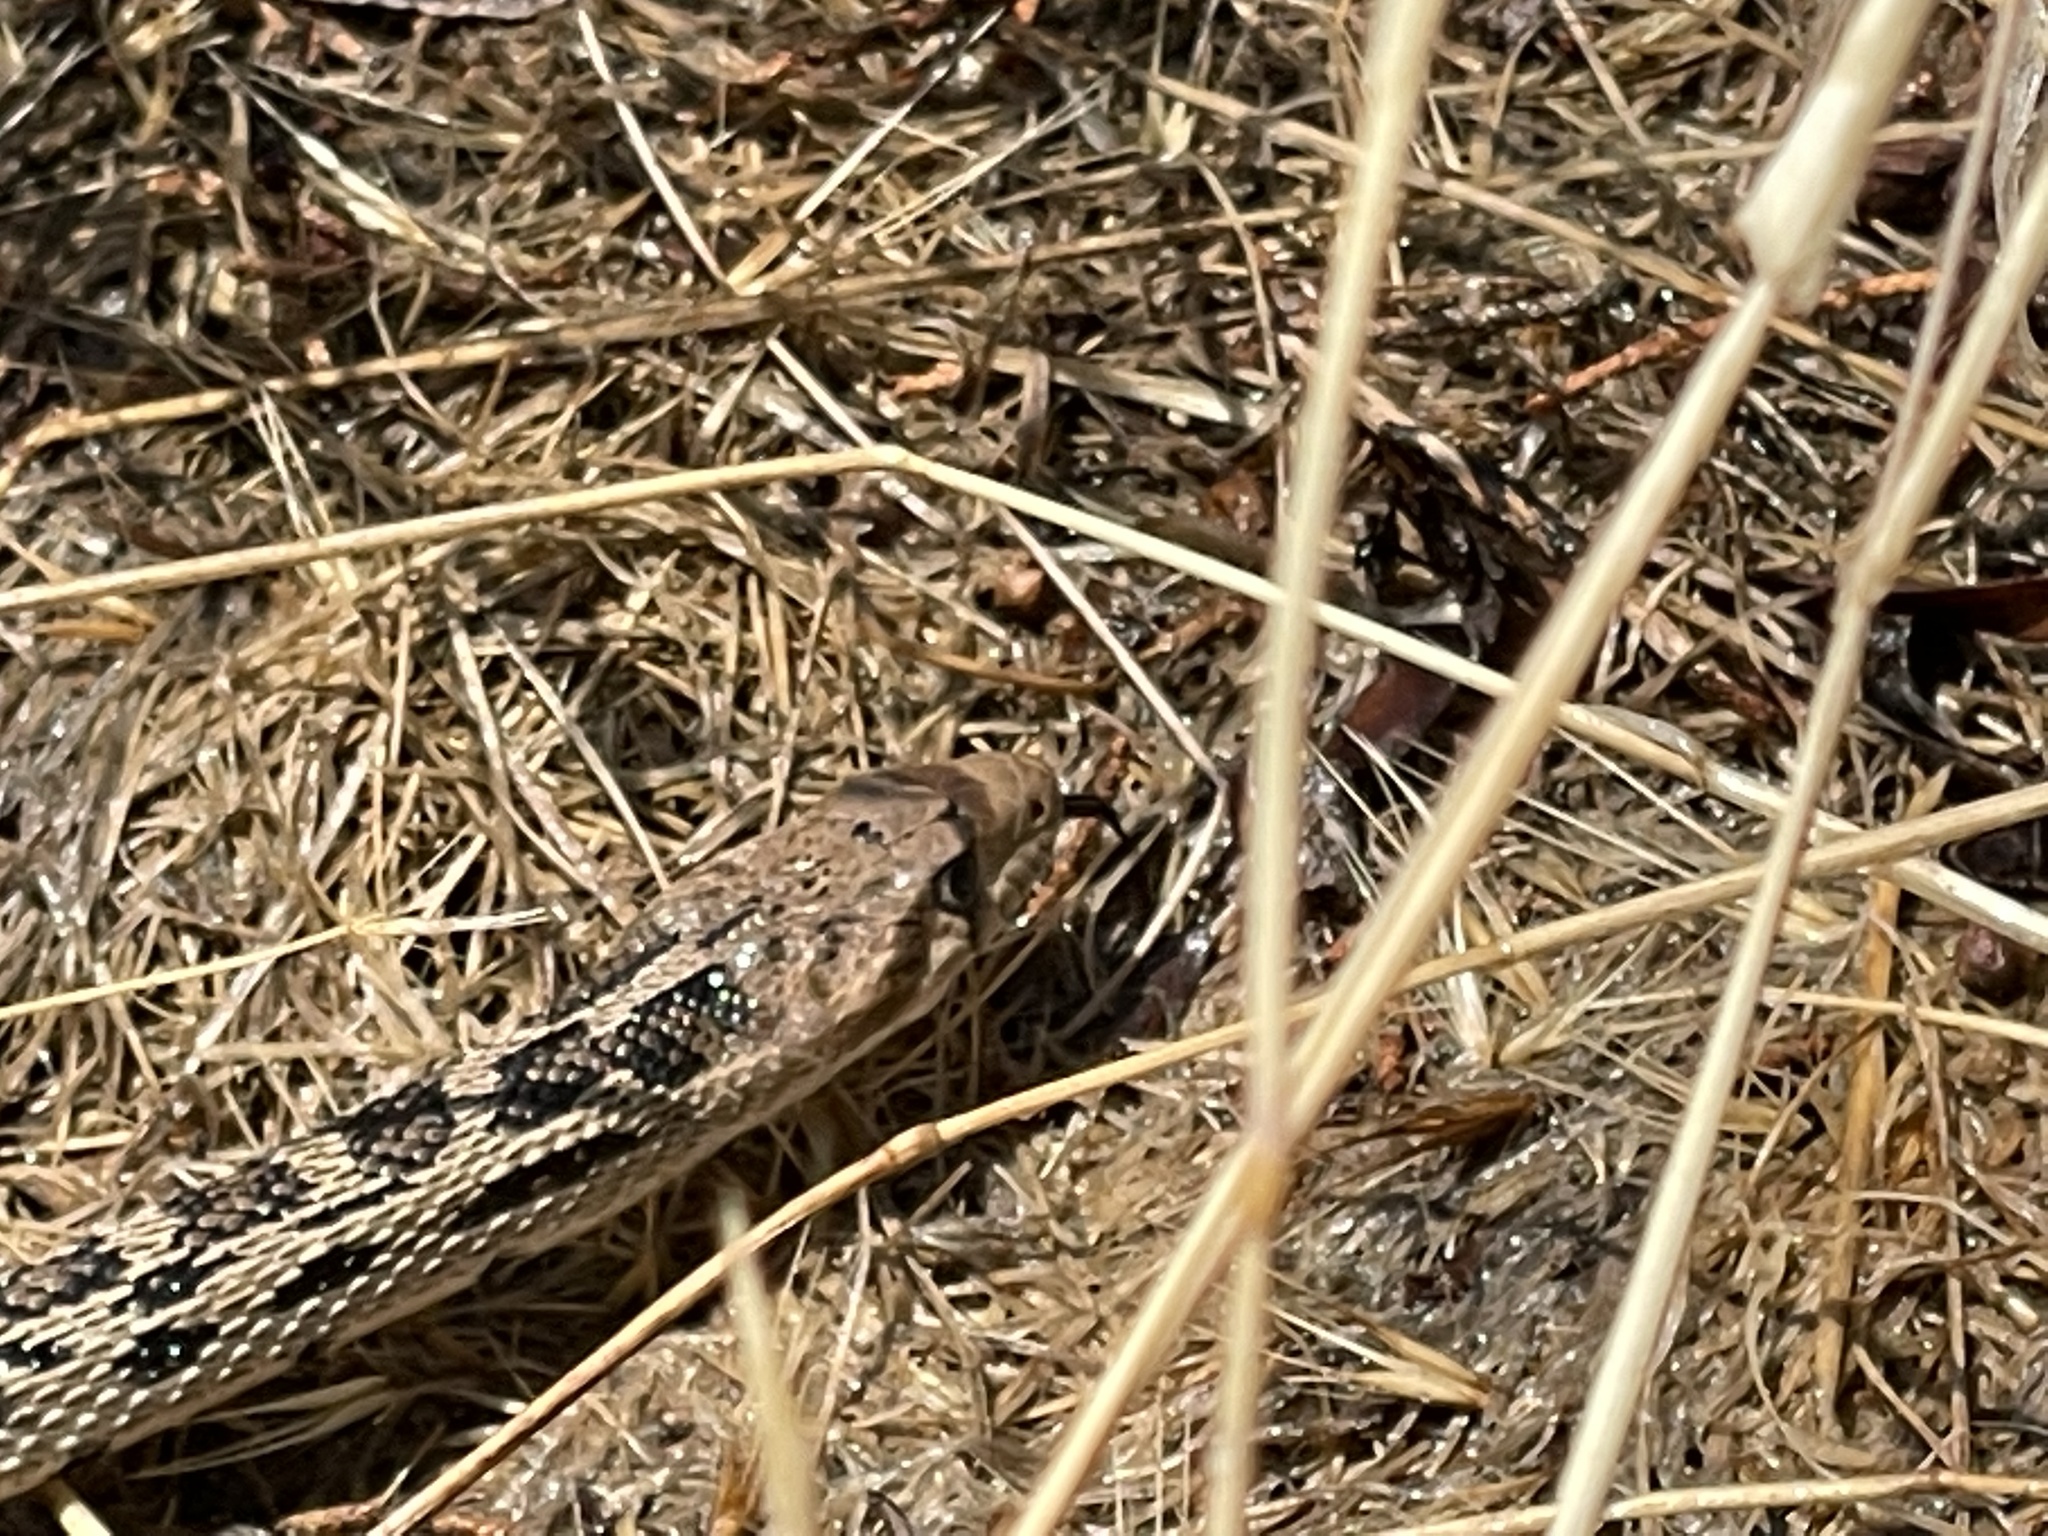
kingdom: Animalia
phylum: Chordata
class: Squamata
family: Colubridae
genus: Pituophis
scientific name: Pituophis catenifer
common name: Gopher snake
